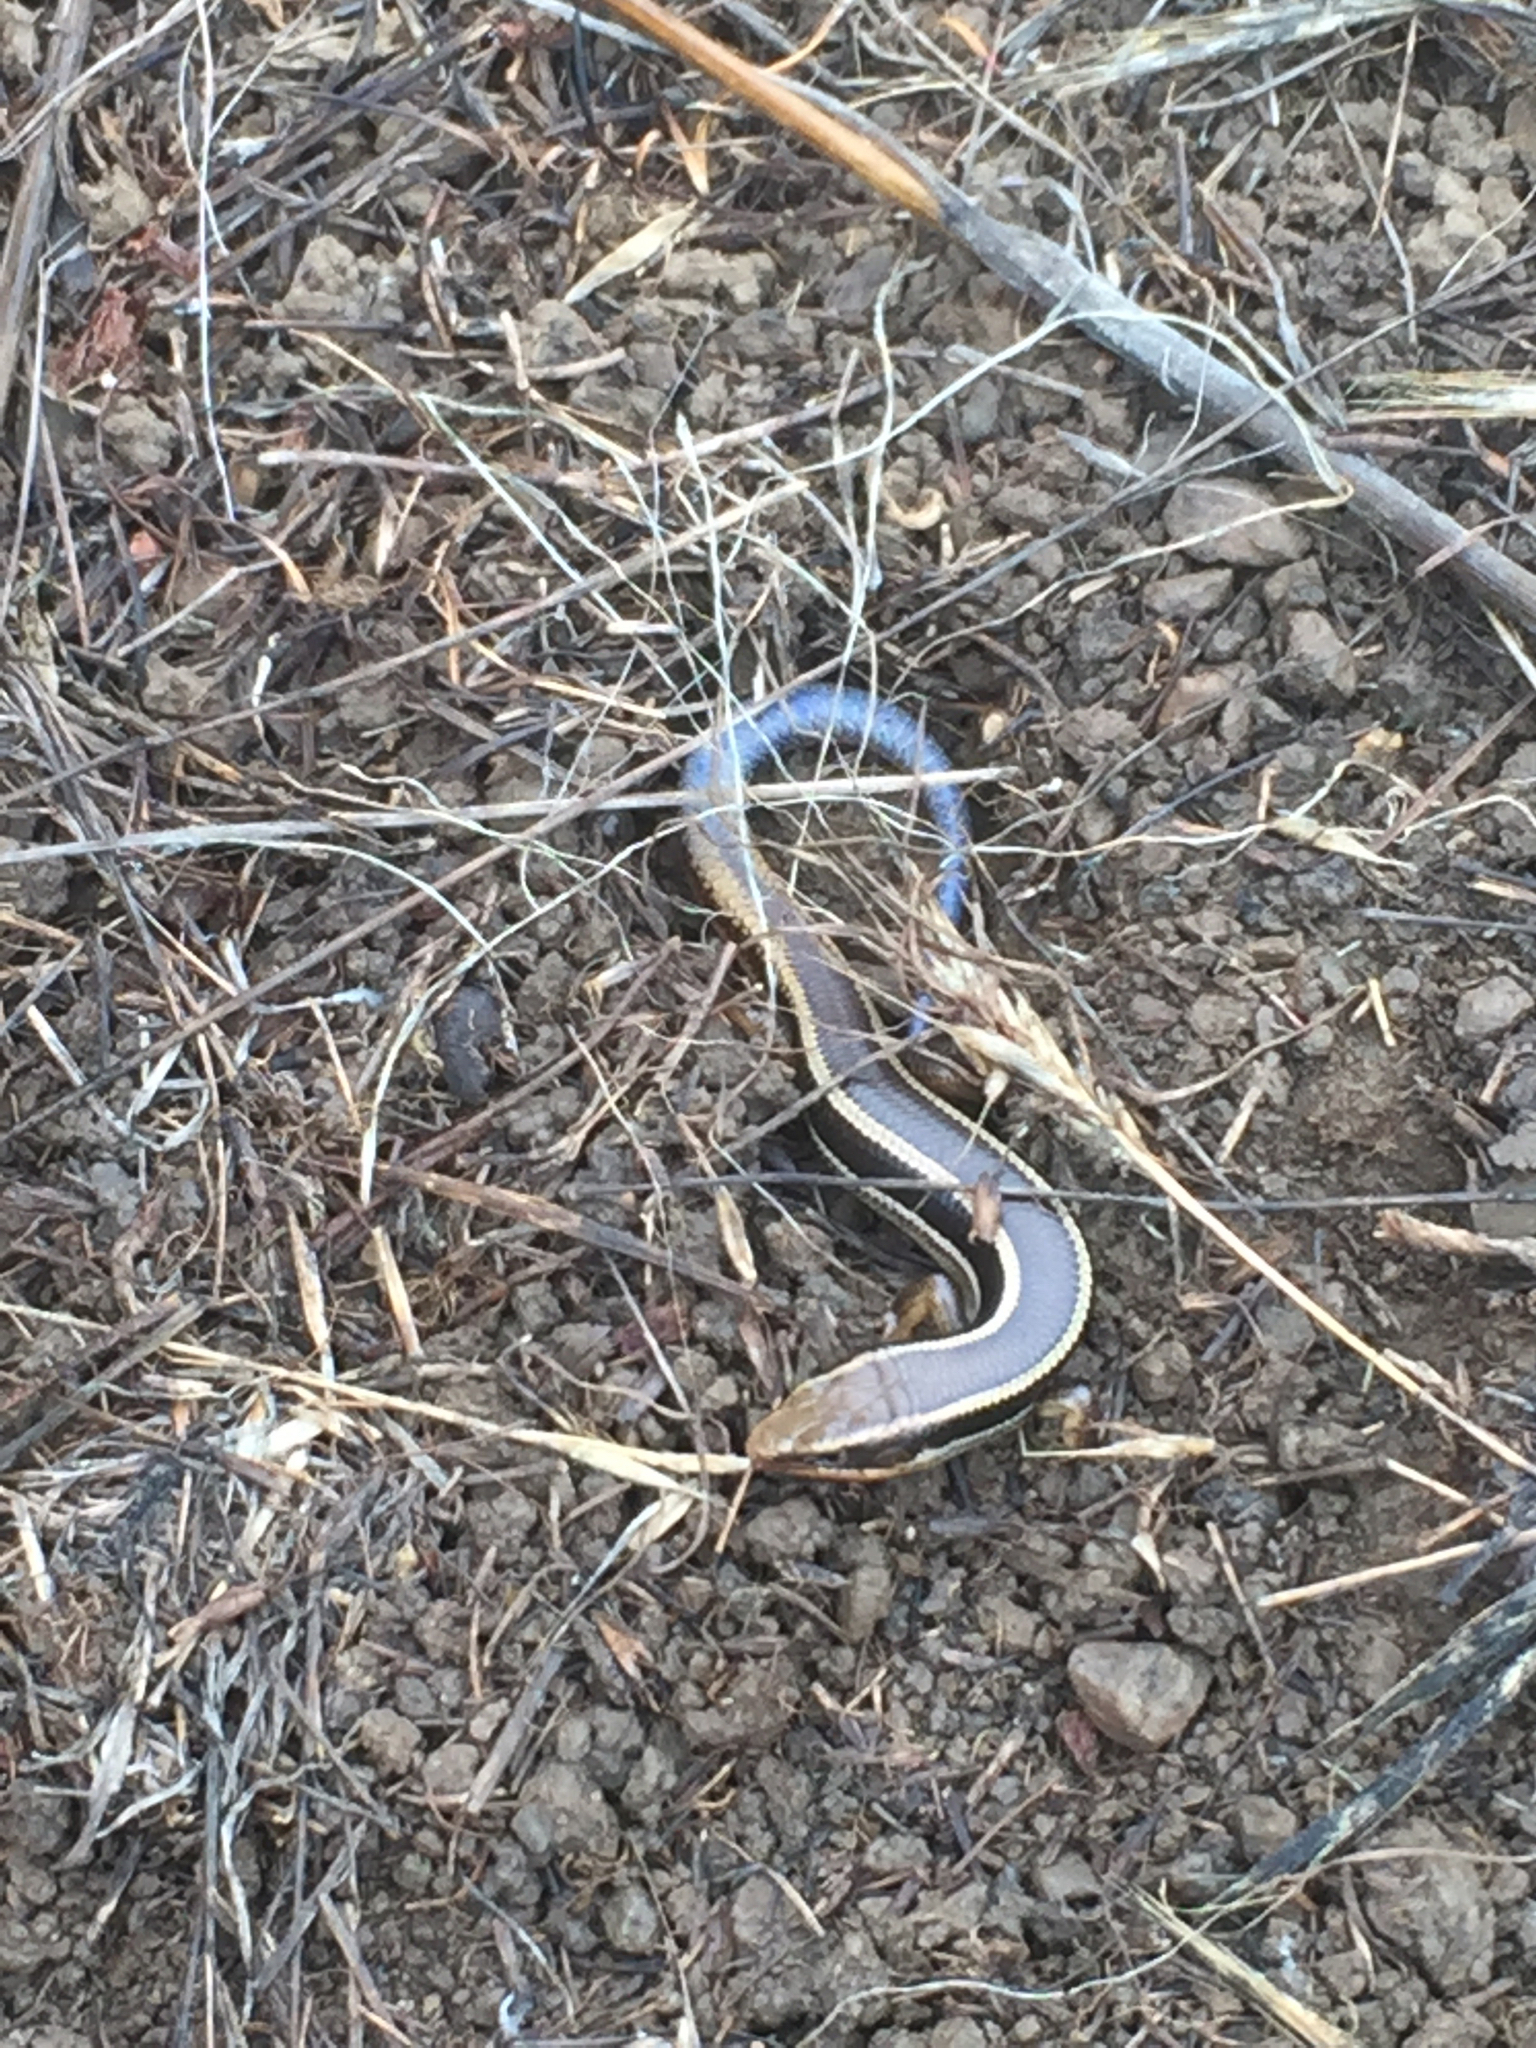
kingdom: Animalia
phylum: Chordata
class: Squamata
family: Scincidae
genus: Plestiodon
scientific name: Plestiodon skiltonianus
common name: Coronado island skink [interparietalis]
